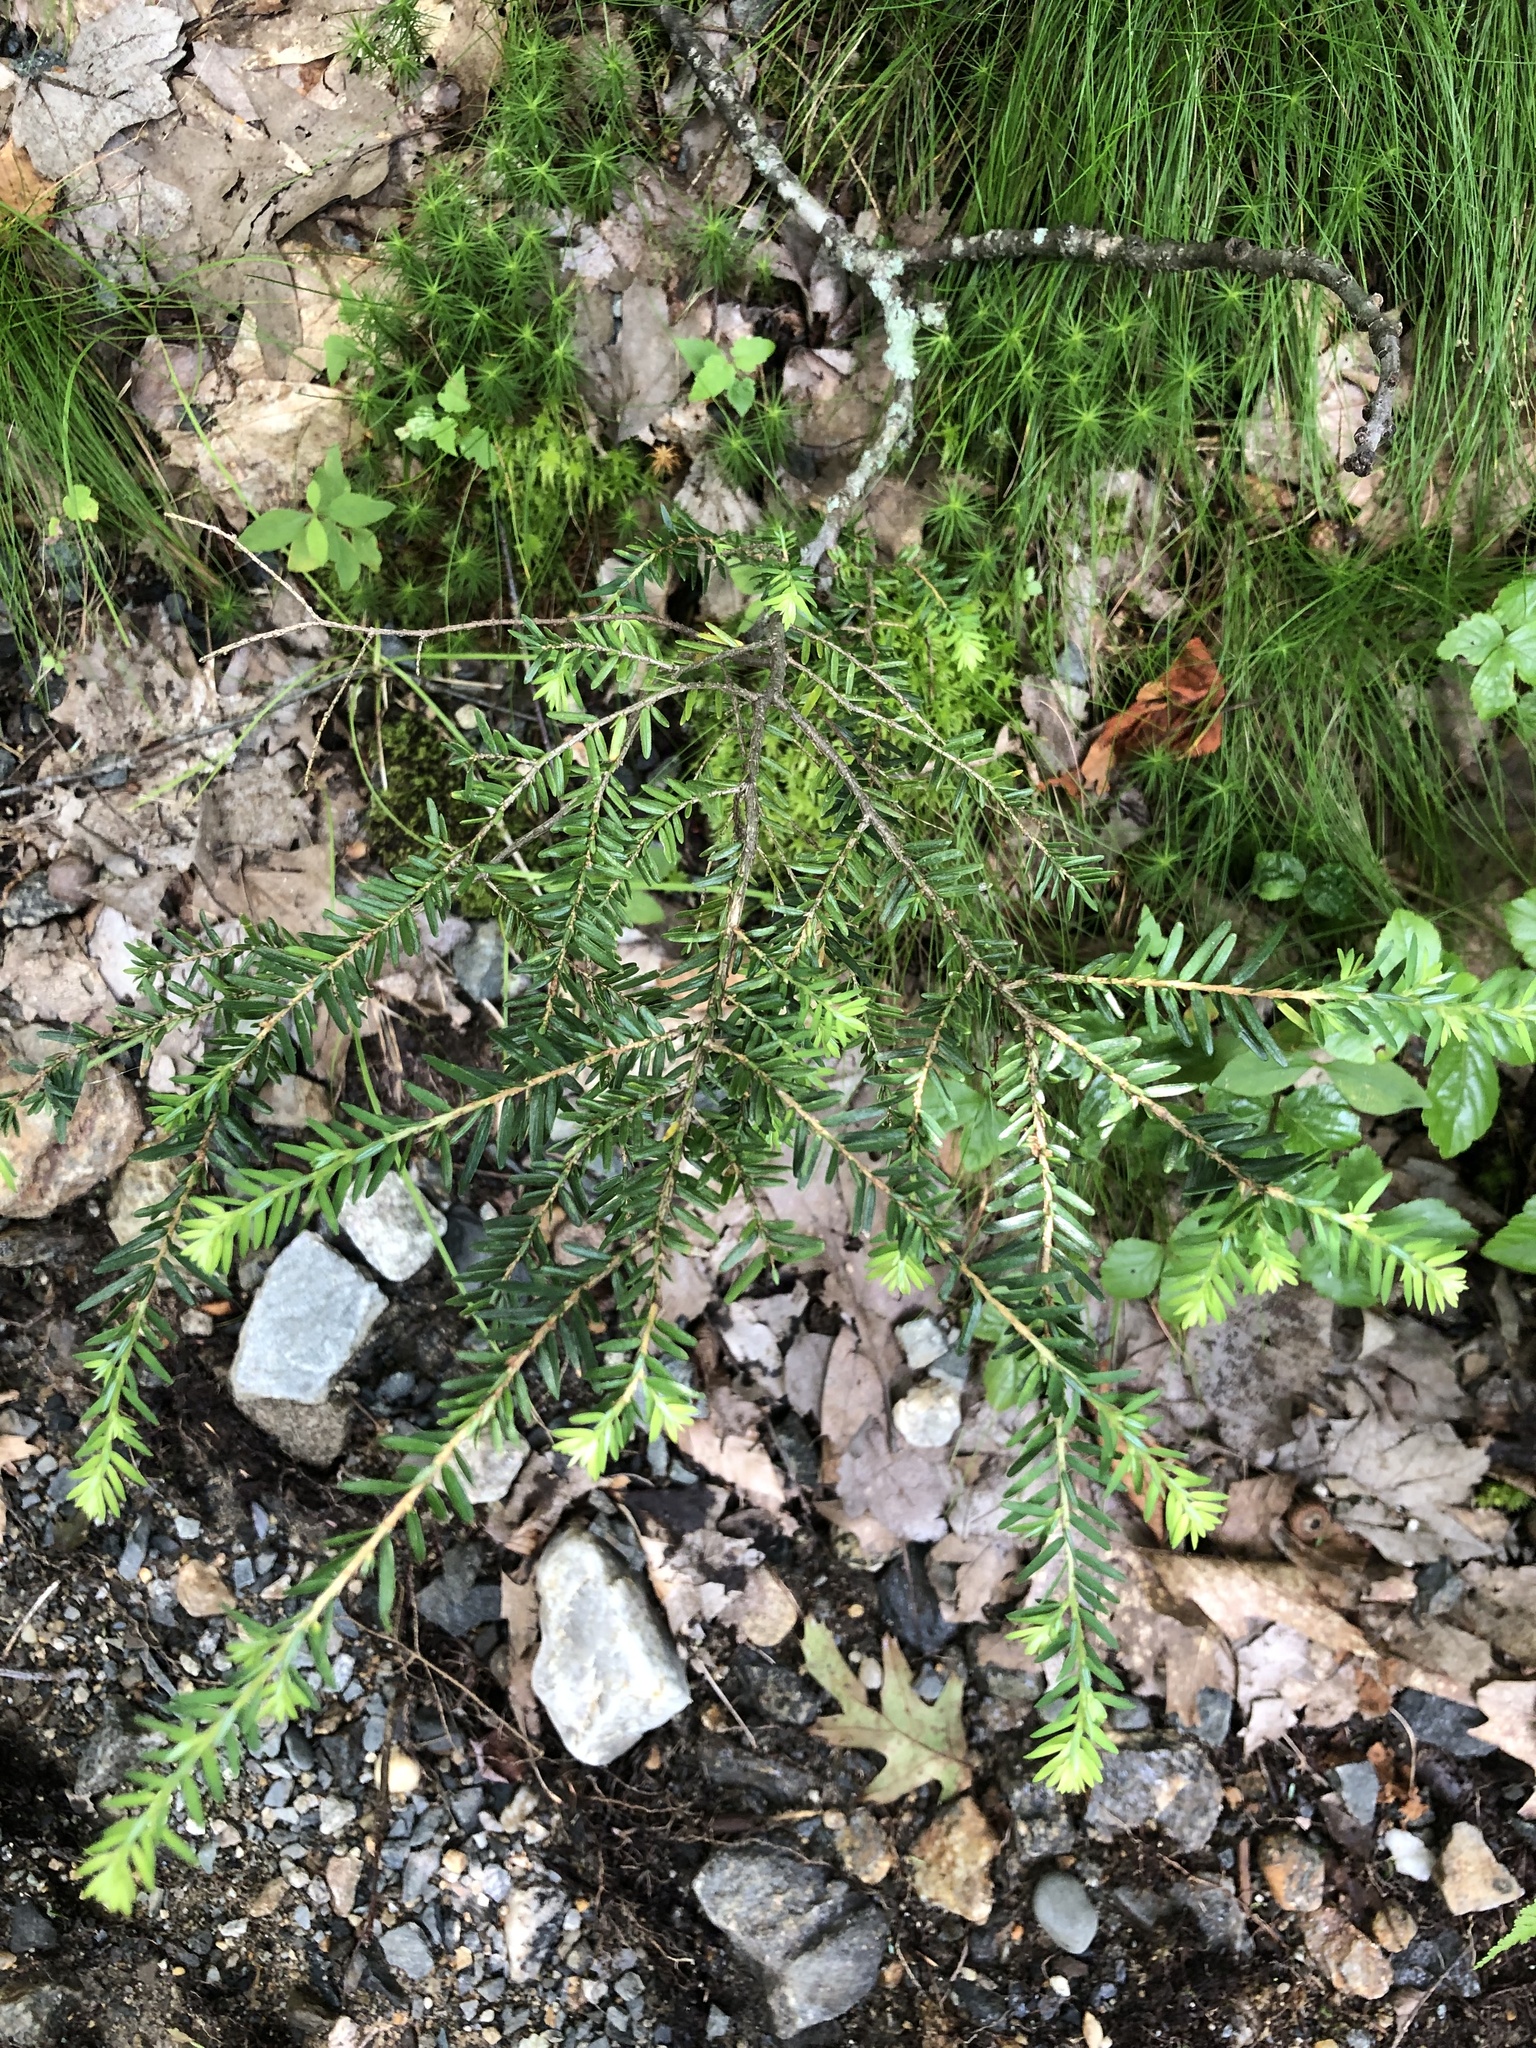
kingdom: Plantae
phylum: Tracheophyta
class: Pinopsida
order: Pinales
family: Pinaceae
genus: Tsuga
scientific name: Tsuga canadensis
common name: Eastern hemlock
